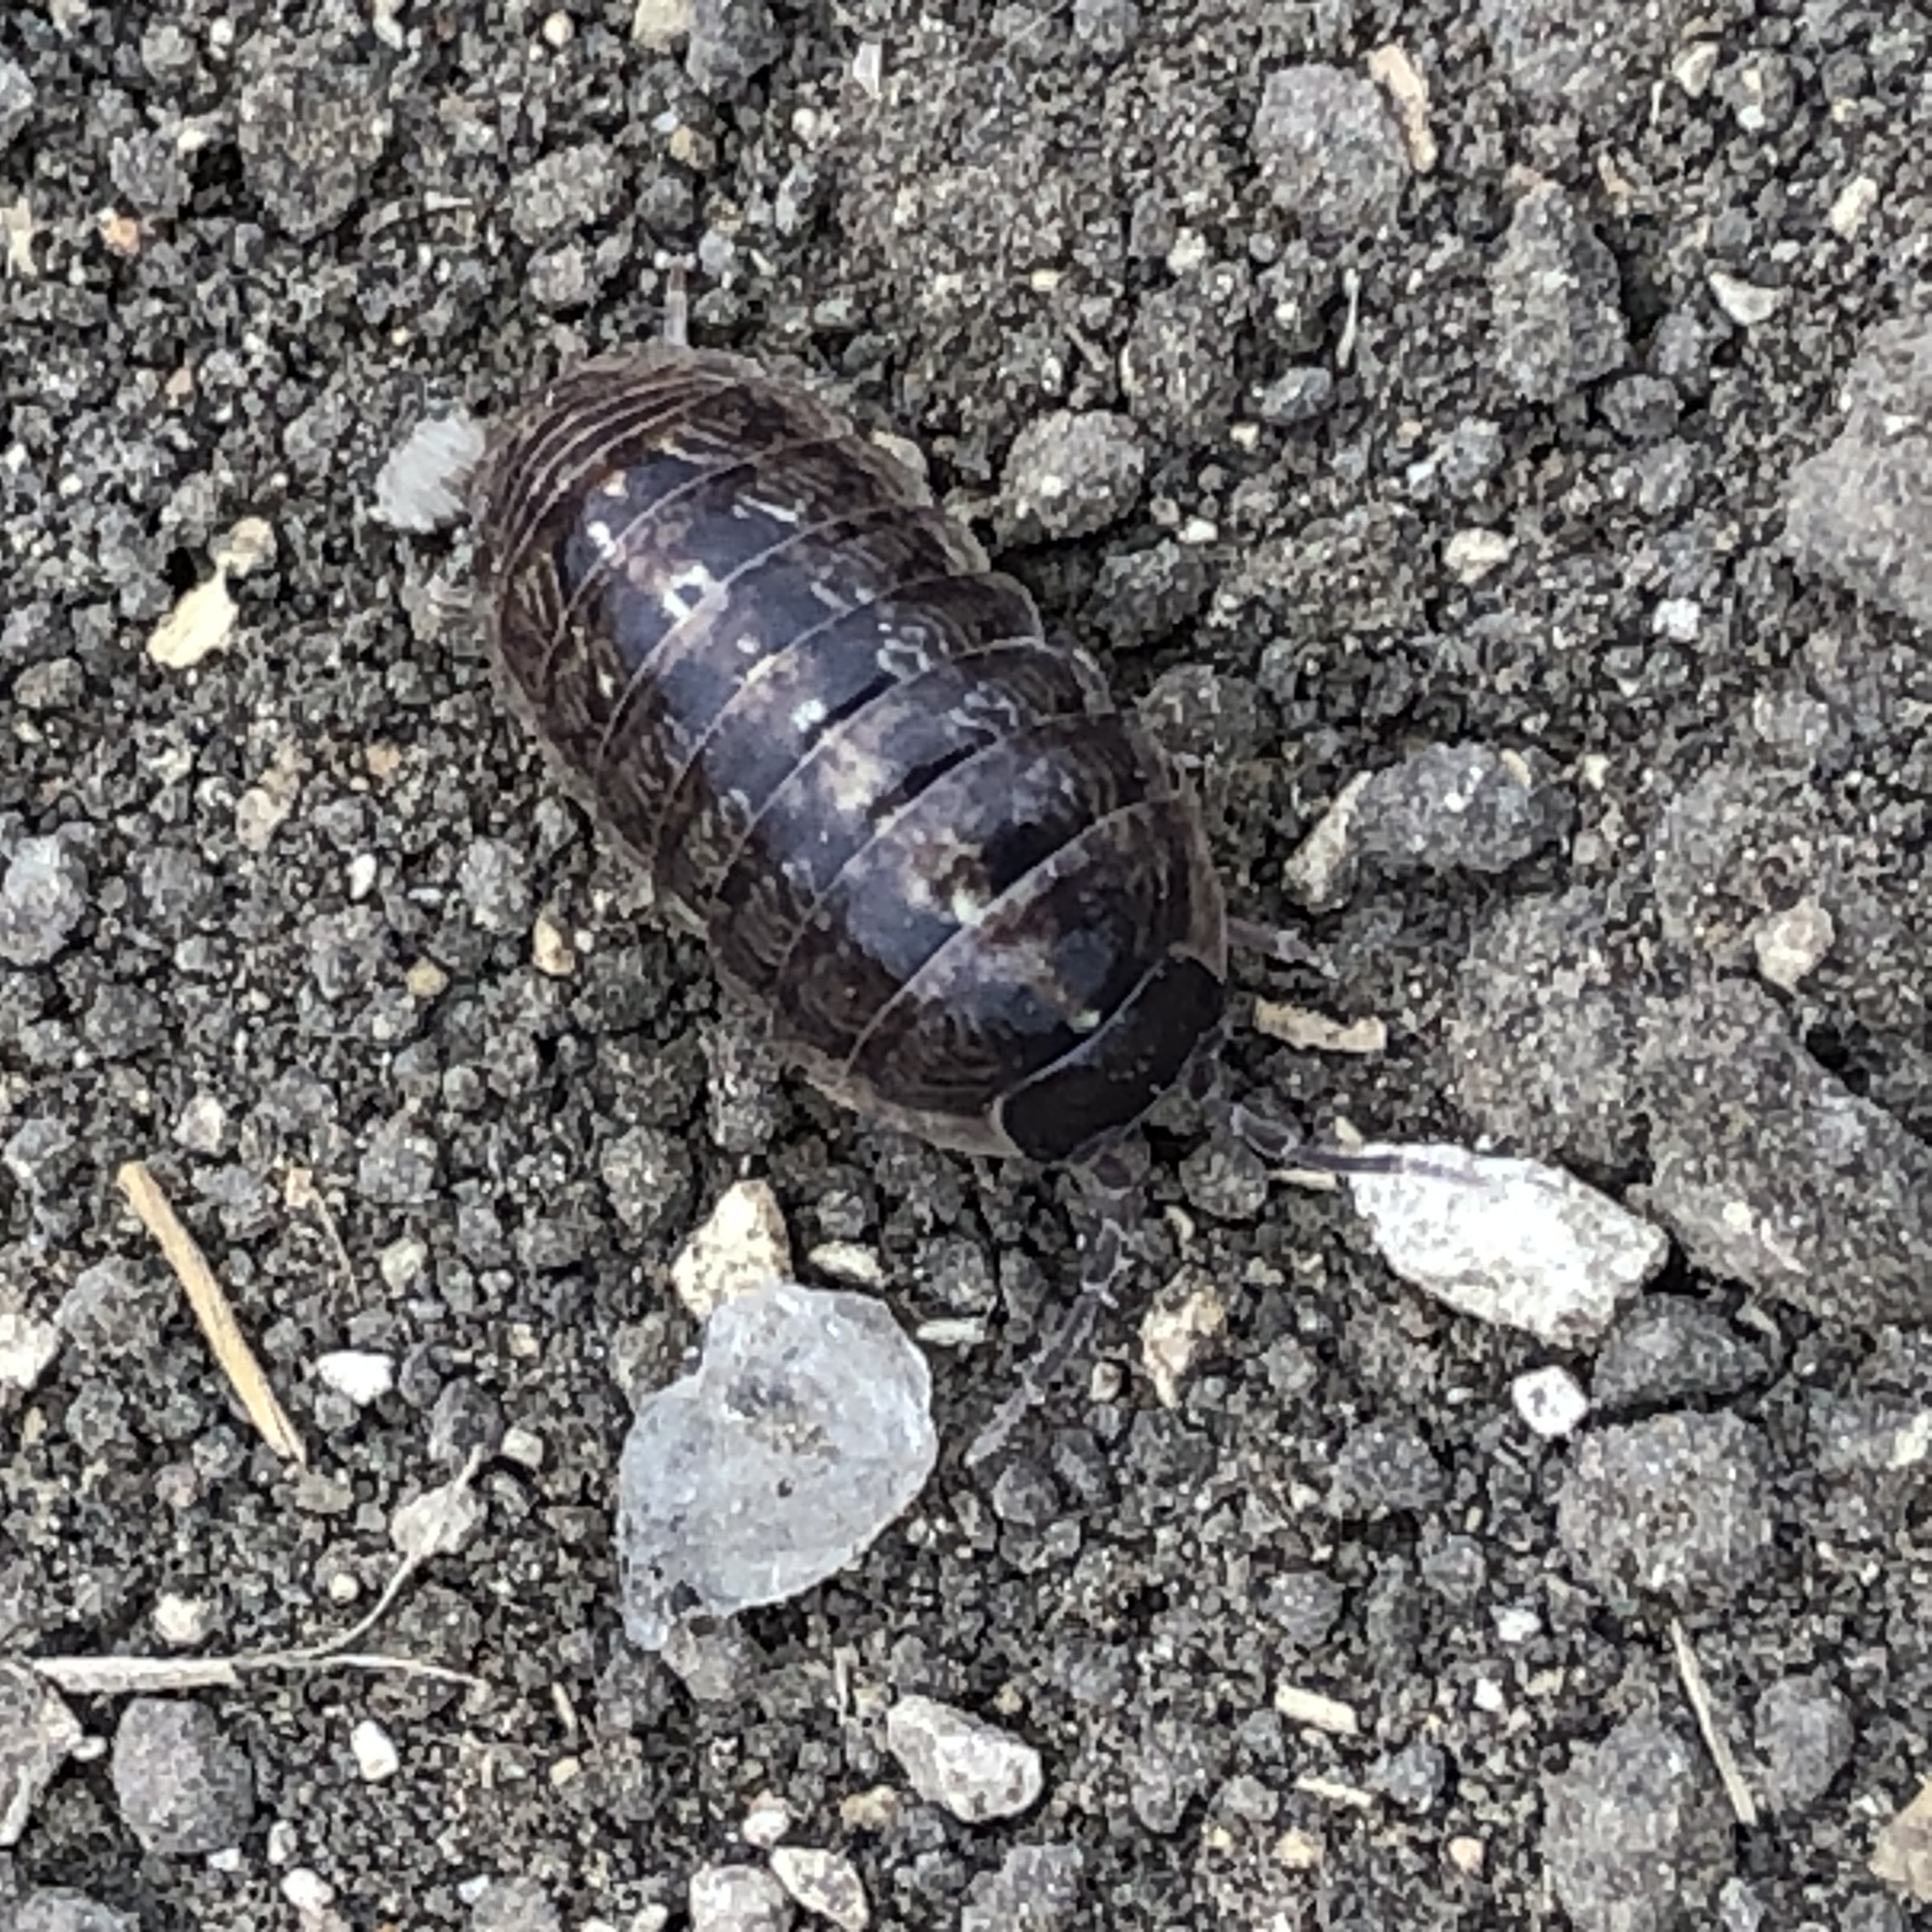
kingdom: Animalia
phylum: Arthropoda
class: Malacostraca
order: Isopoda
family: Armadillidiidae
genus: Armadillidium
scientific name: Armadillidium vulgare
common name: Common pill woodlouse
